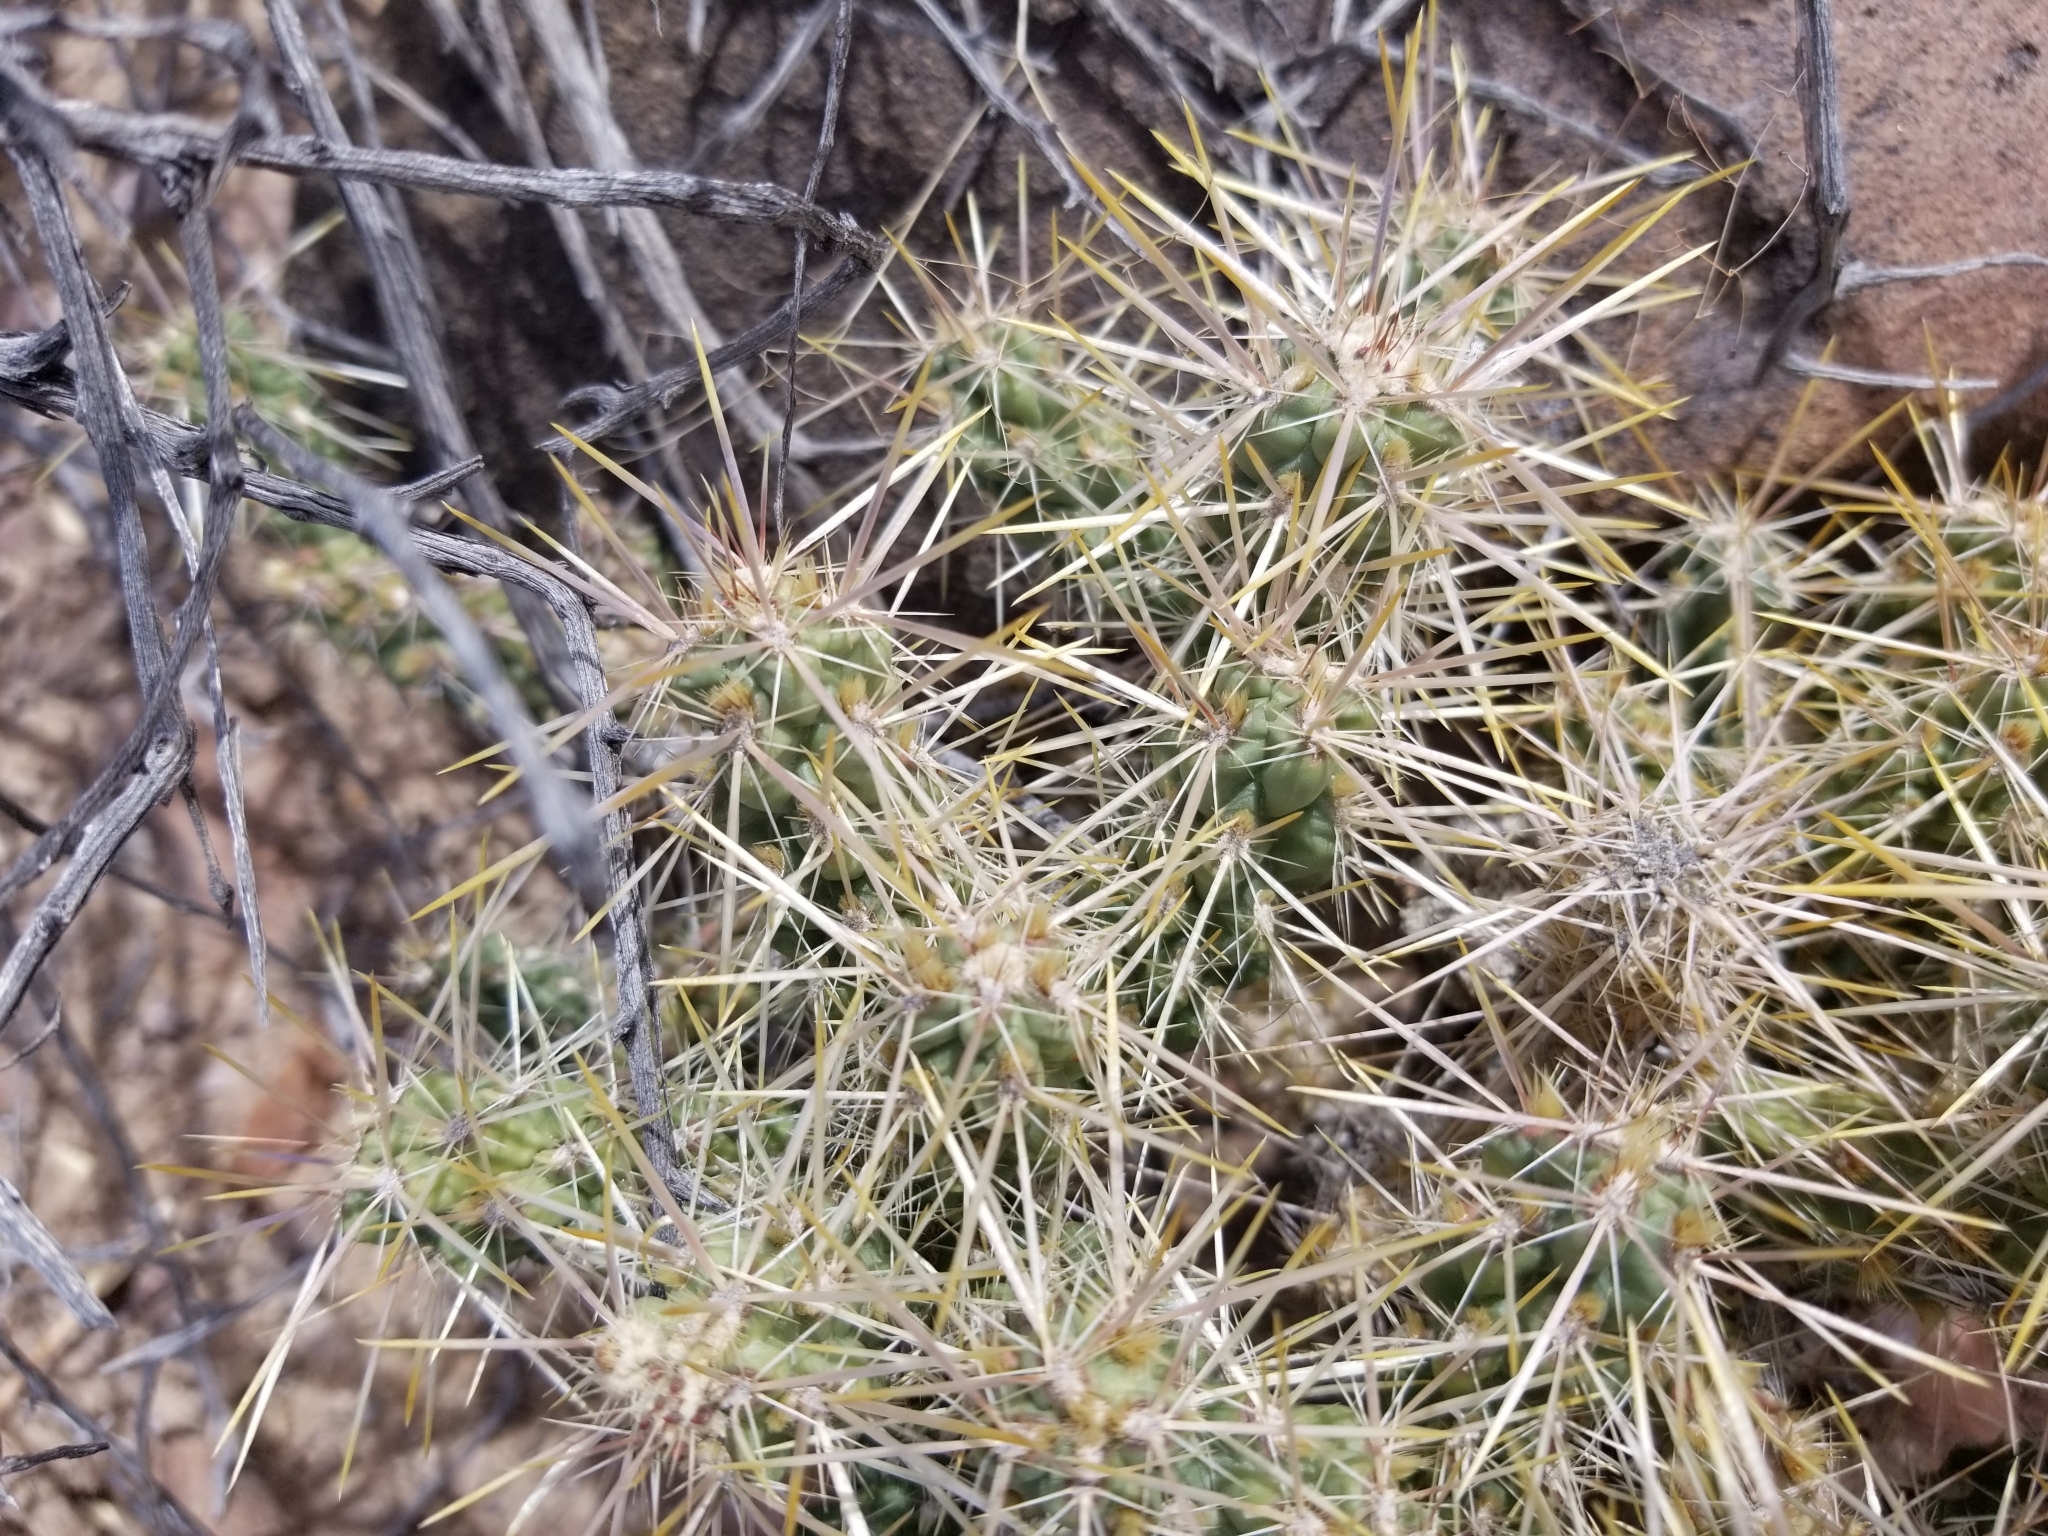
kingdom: Plantae
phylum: Tracheophyta
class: Magnoliopsida
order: Caryophyllales
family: Cactaceae
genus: Cylindropuntia
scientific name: Cylindropuntia echinocarpa
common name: Ground cholla
